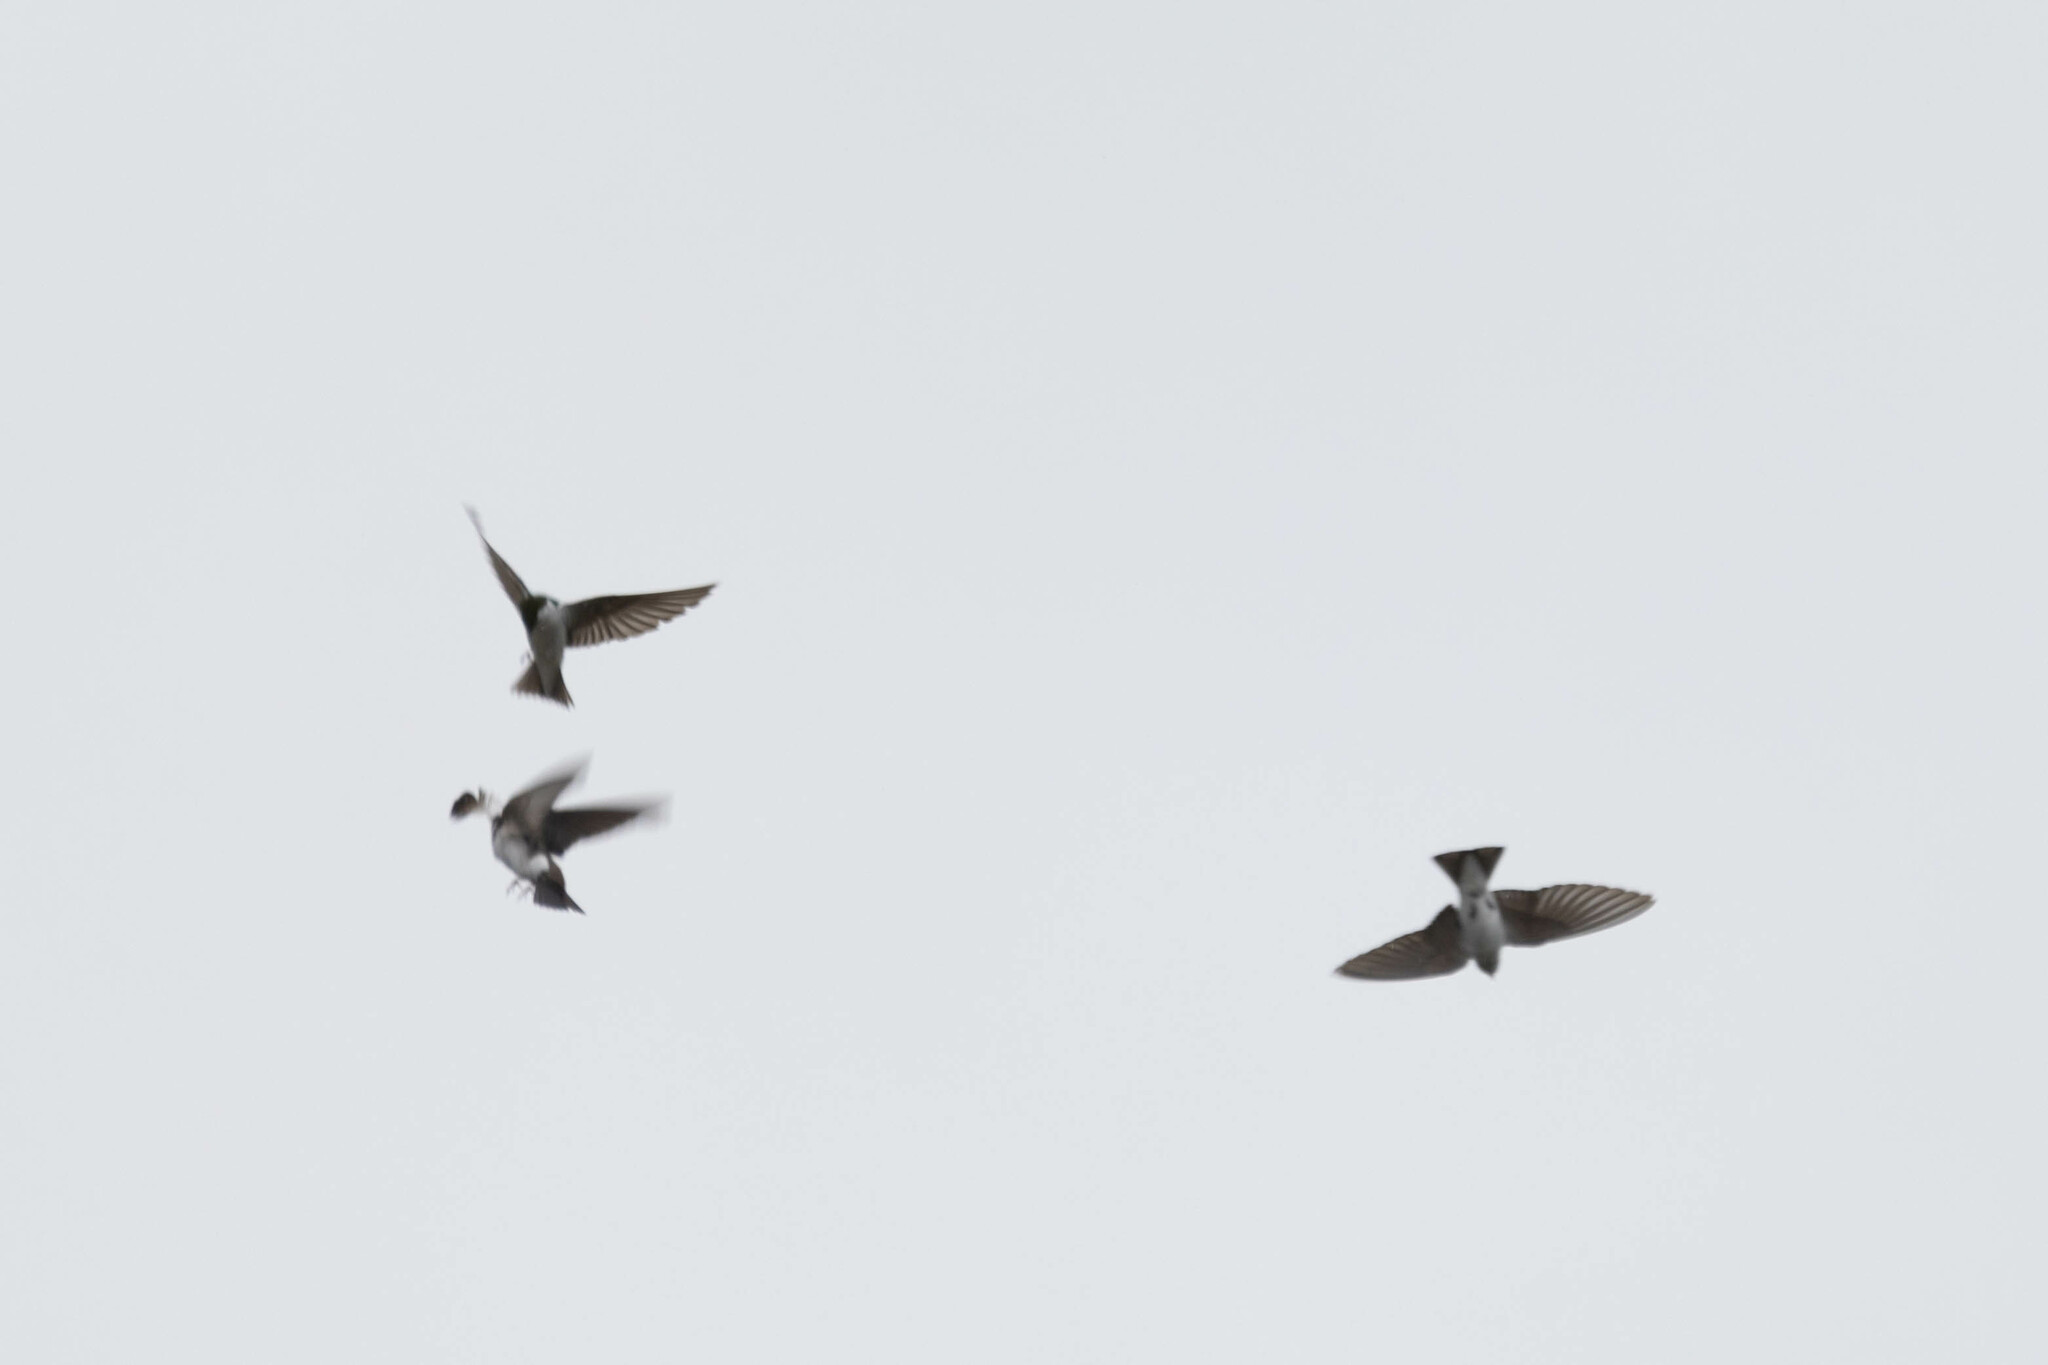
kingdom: Animalia
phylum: Chordata
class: Aves
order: Passeriformes
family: Hirundinidae
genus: Tachycineta
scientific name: Tachycineta thalassina
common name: Violet-green swallow
